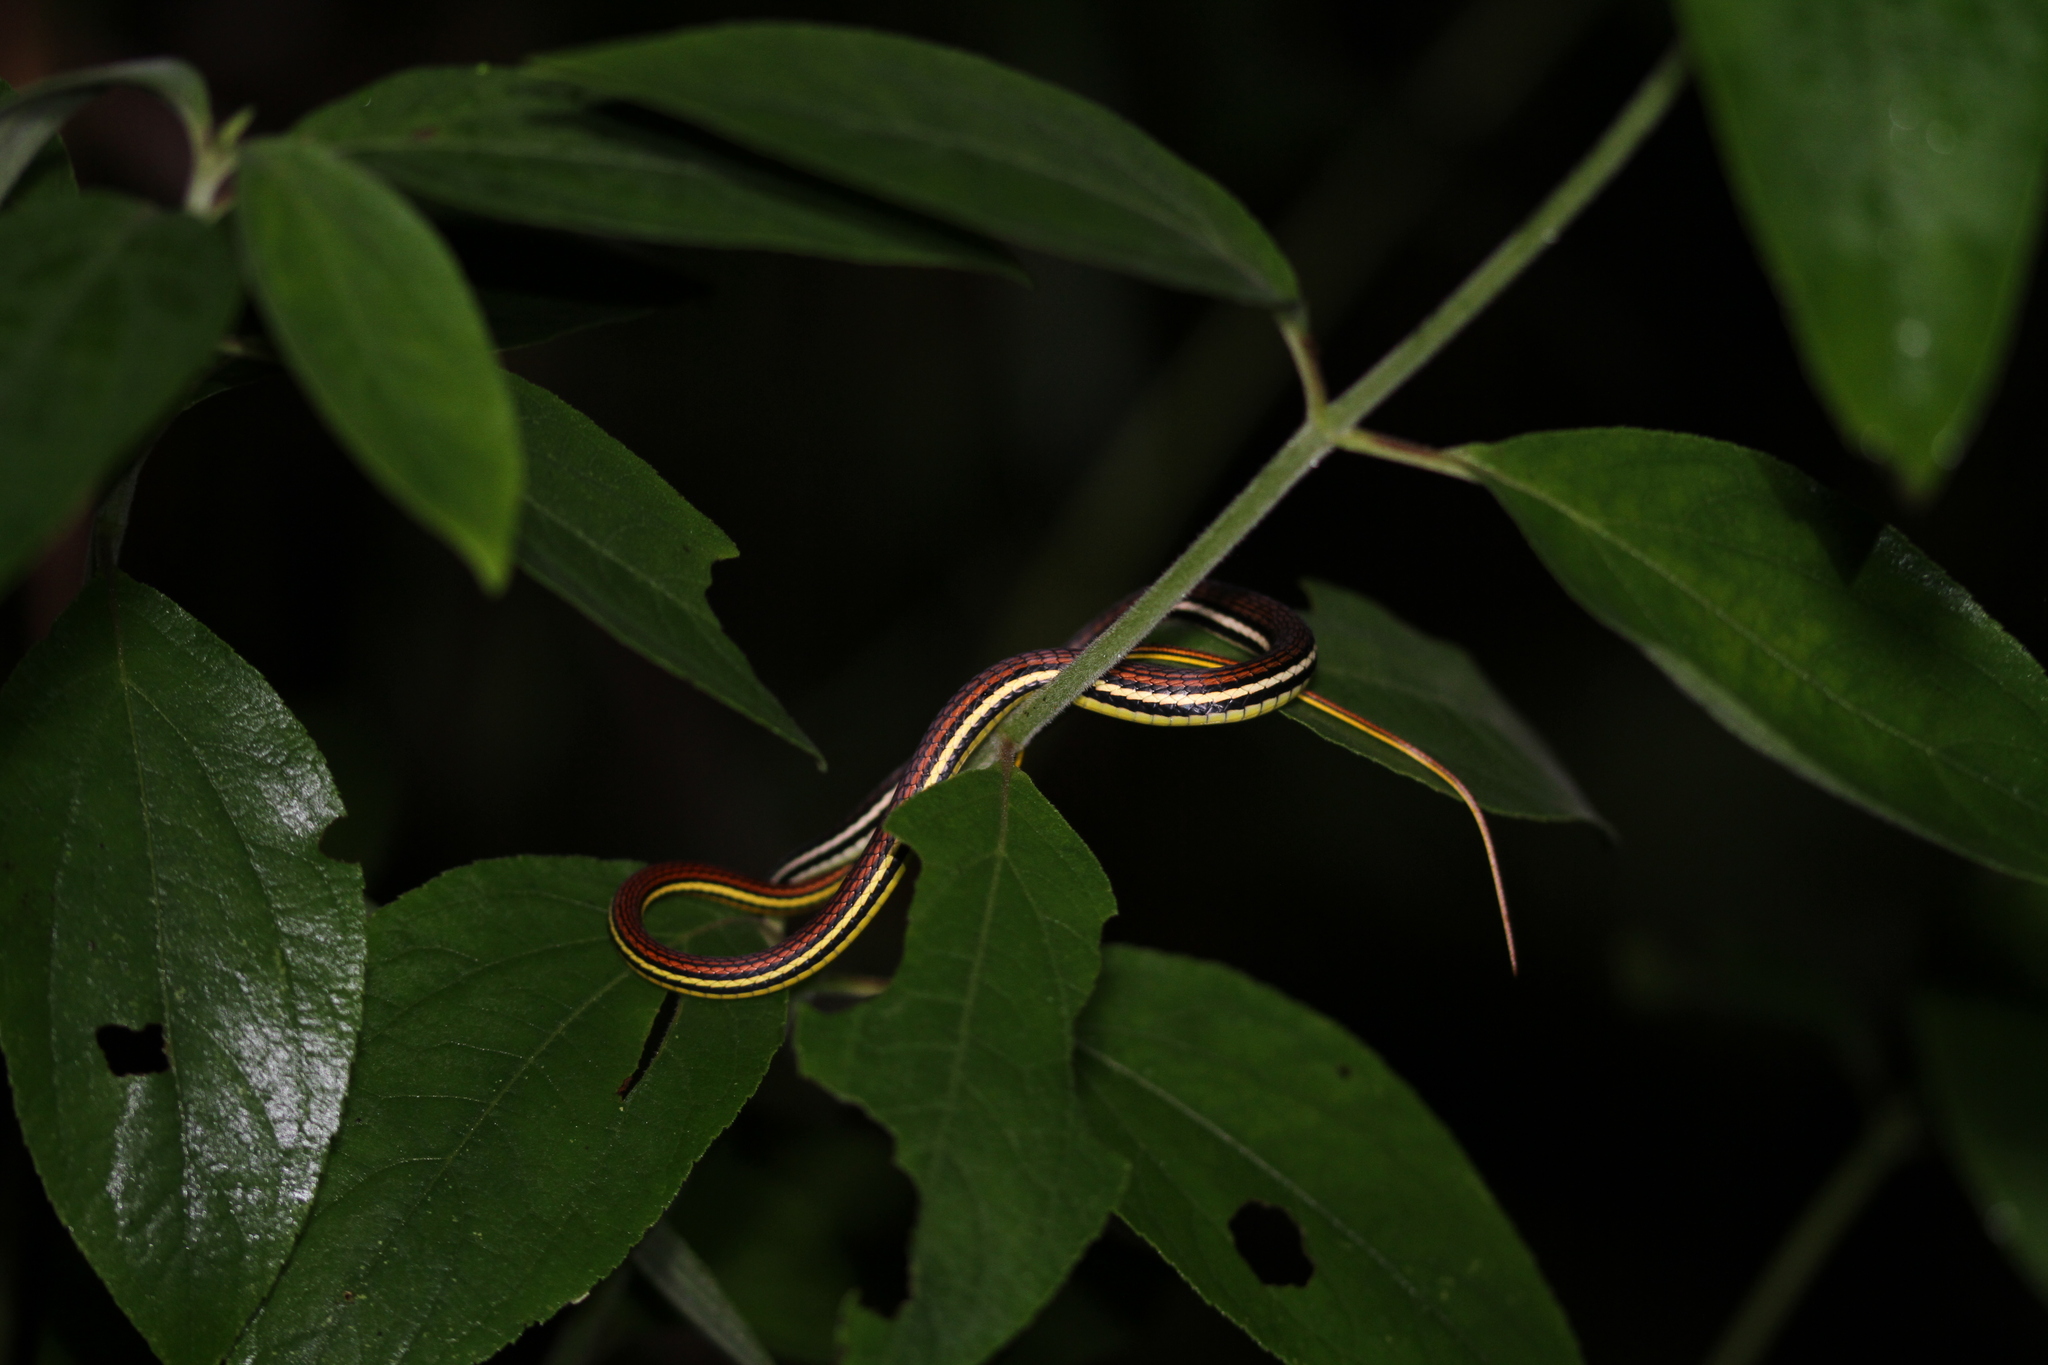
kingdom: Animalia
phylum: Chordata
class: Squamata
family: Colubridae
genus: Dendrelaphis
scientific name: Dendrelaphis caudolineatus
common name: Striped bronzeback
